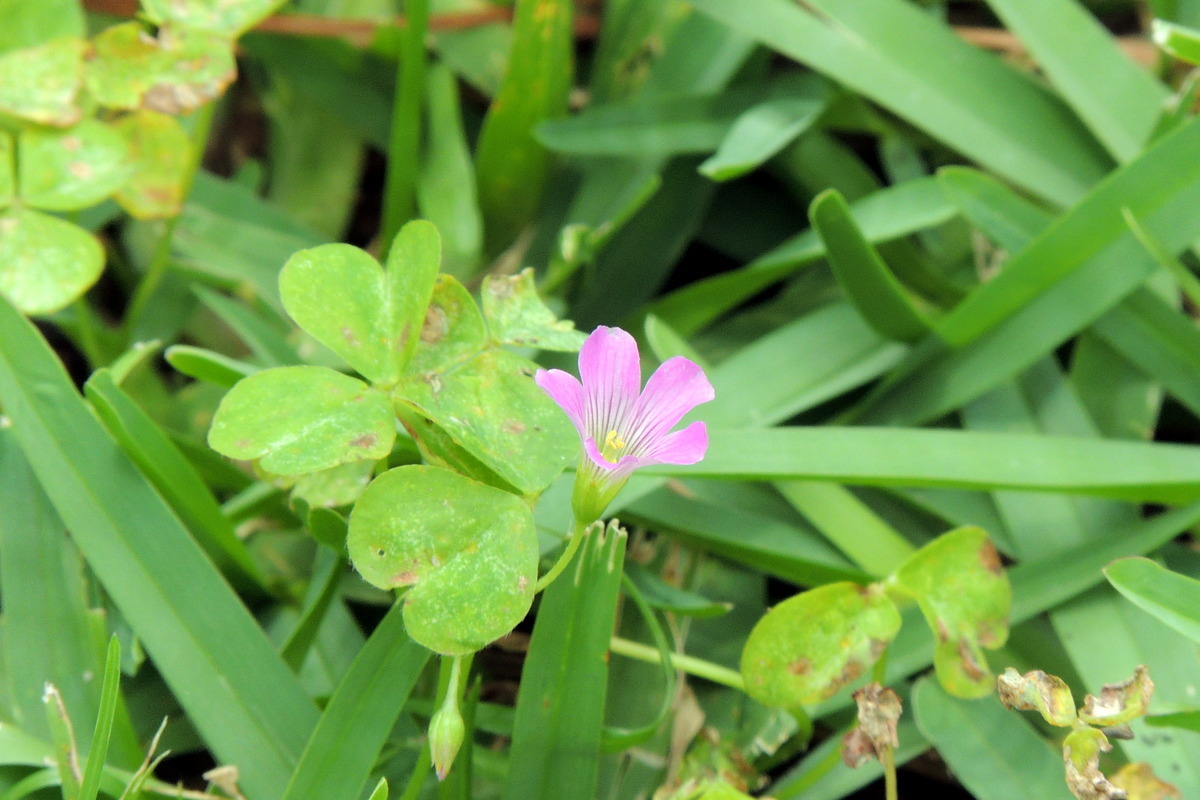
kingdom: Plantae
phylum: Tracheophyta
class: Magnoliopsida
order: Oxalidales
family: Oxalidaceae
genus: Oxalis
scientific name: Oxalis debilis
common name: Large-flowered pink-sorrel
